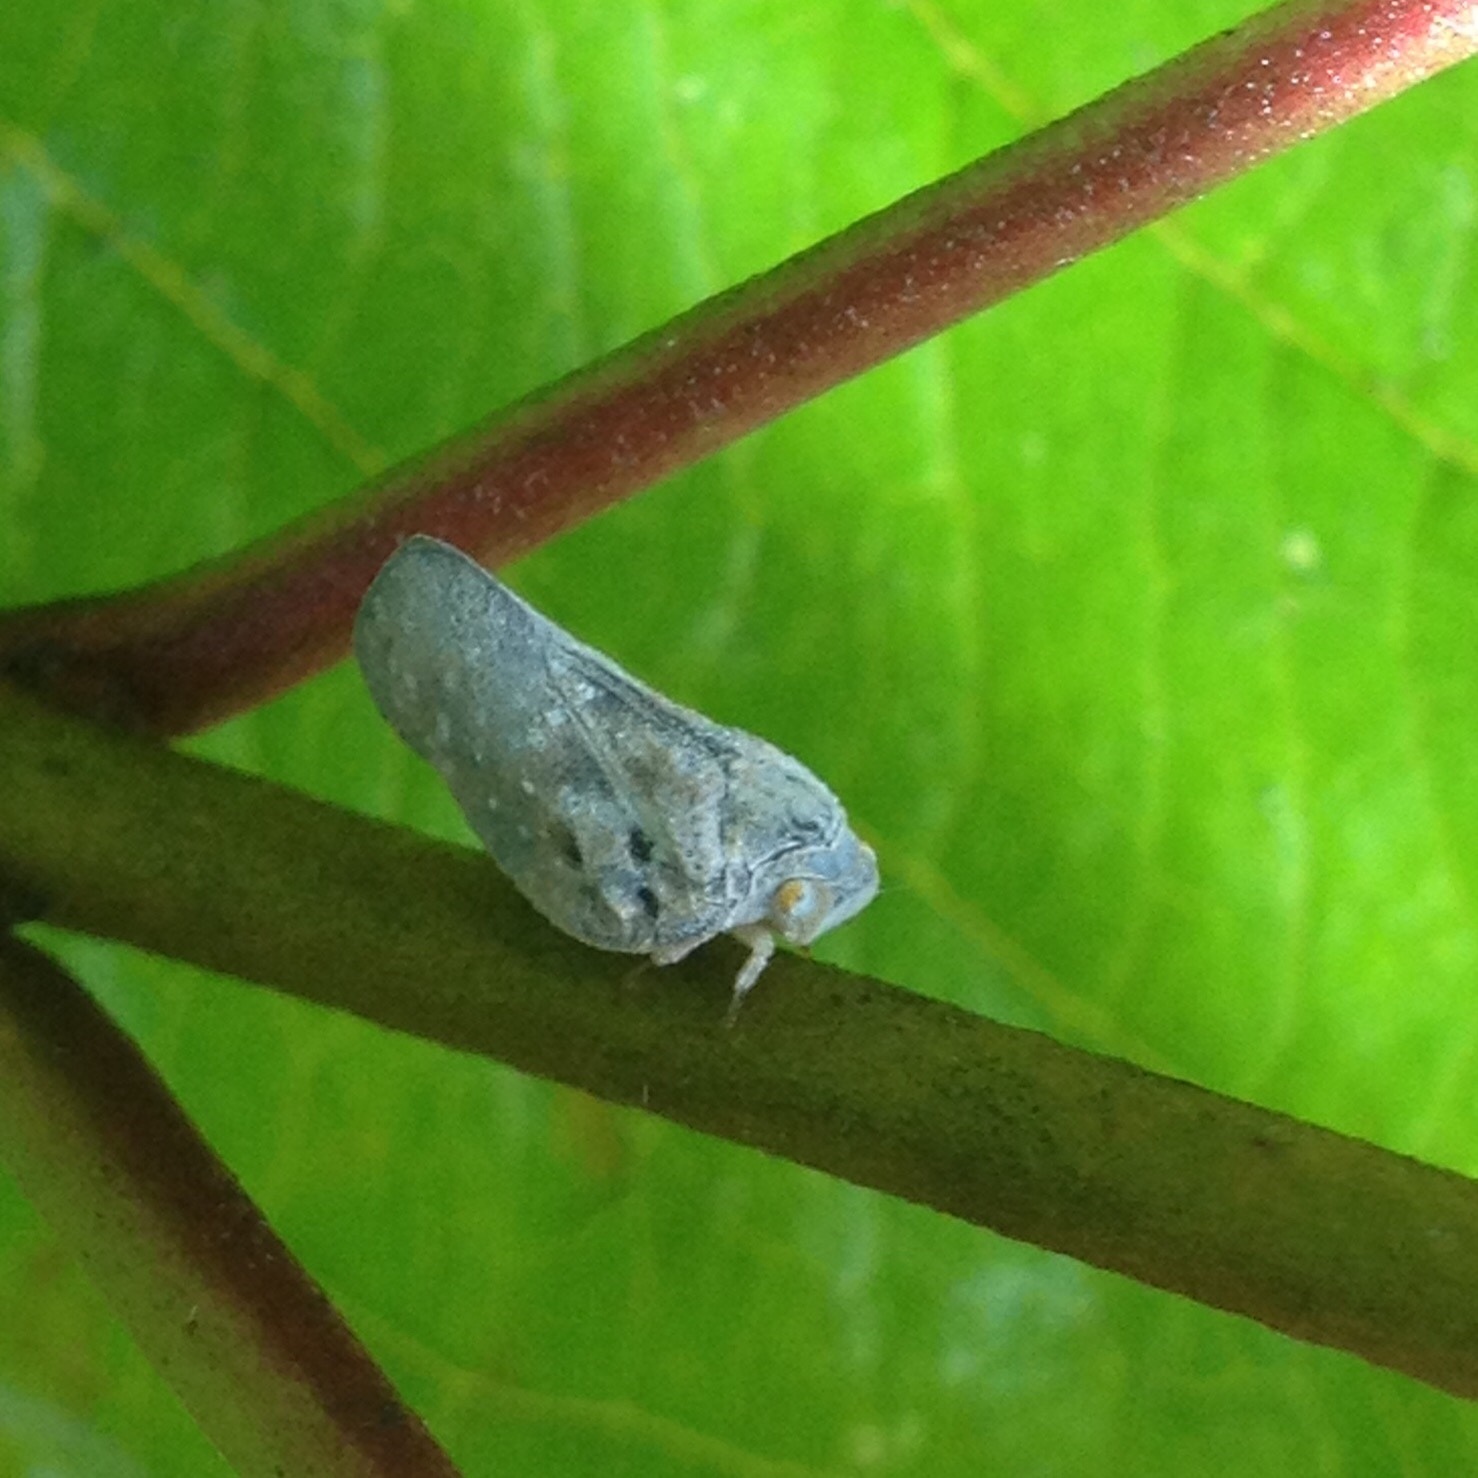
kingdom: Animalia
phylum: Arthropoda
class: Insecta
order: Hemiptera
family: Flatidae
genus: Metcalfa
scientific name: Metcalfa pruinosa
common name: Citrus flatid planthopper
